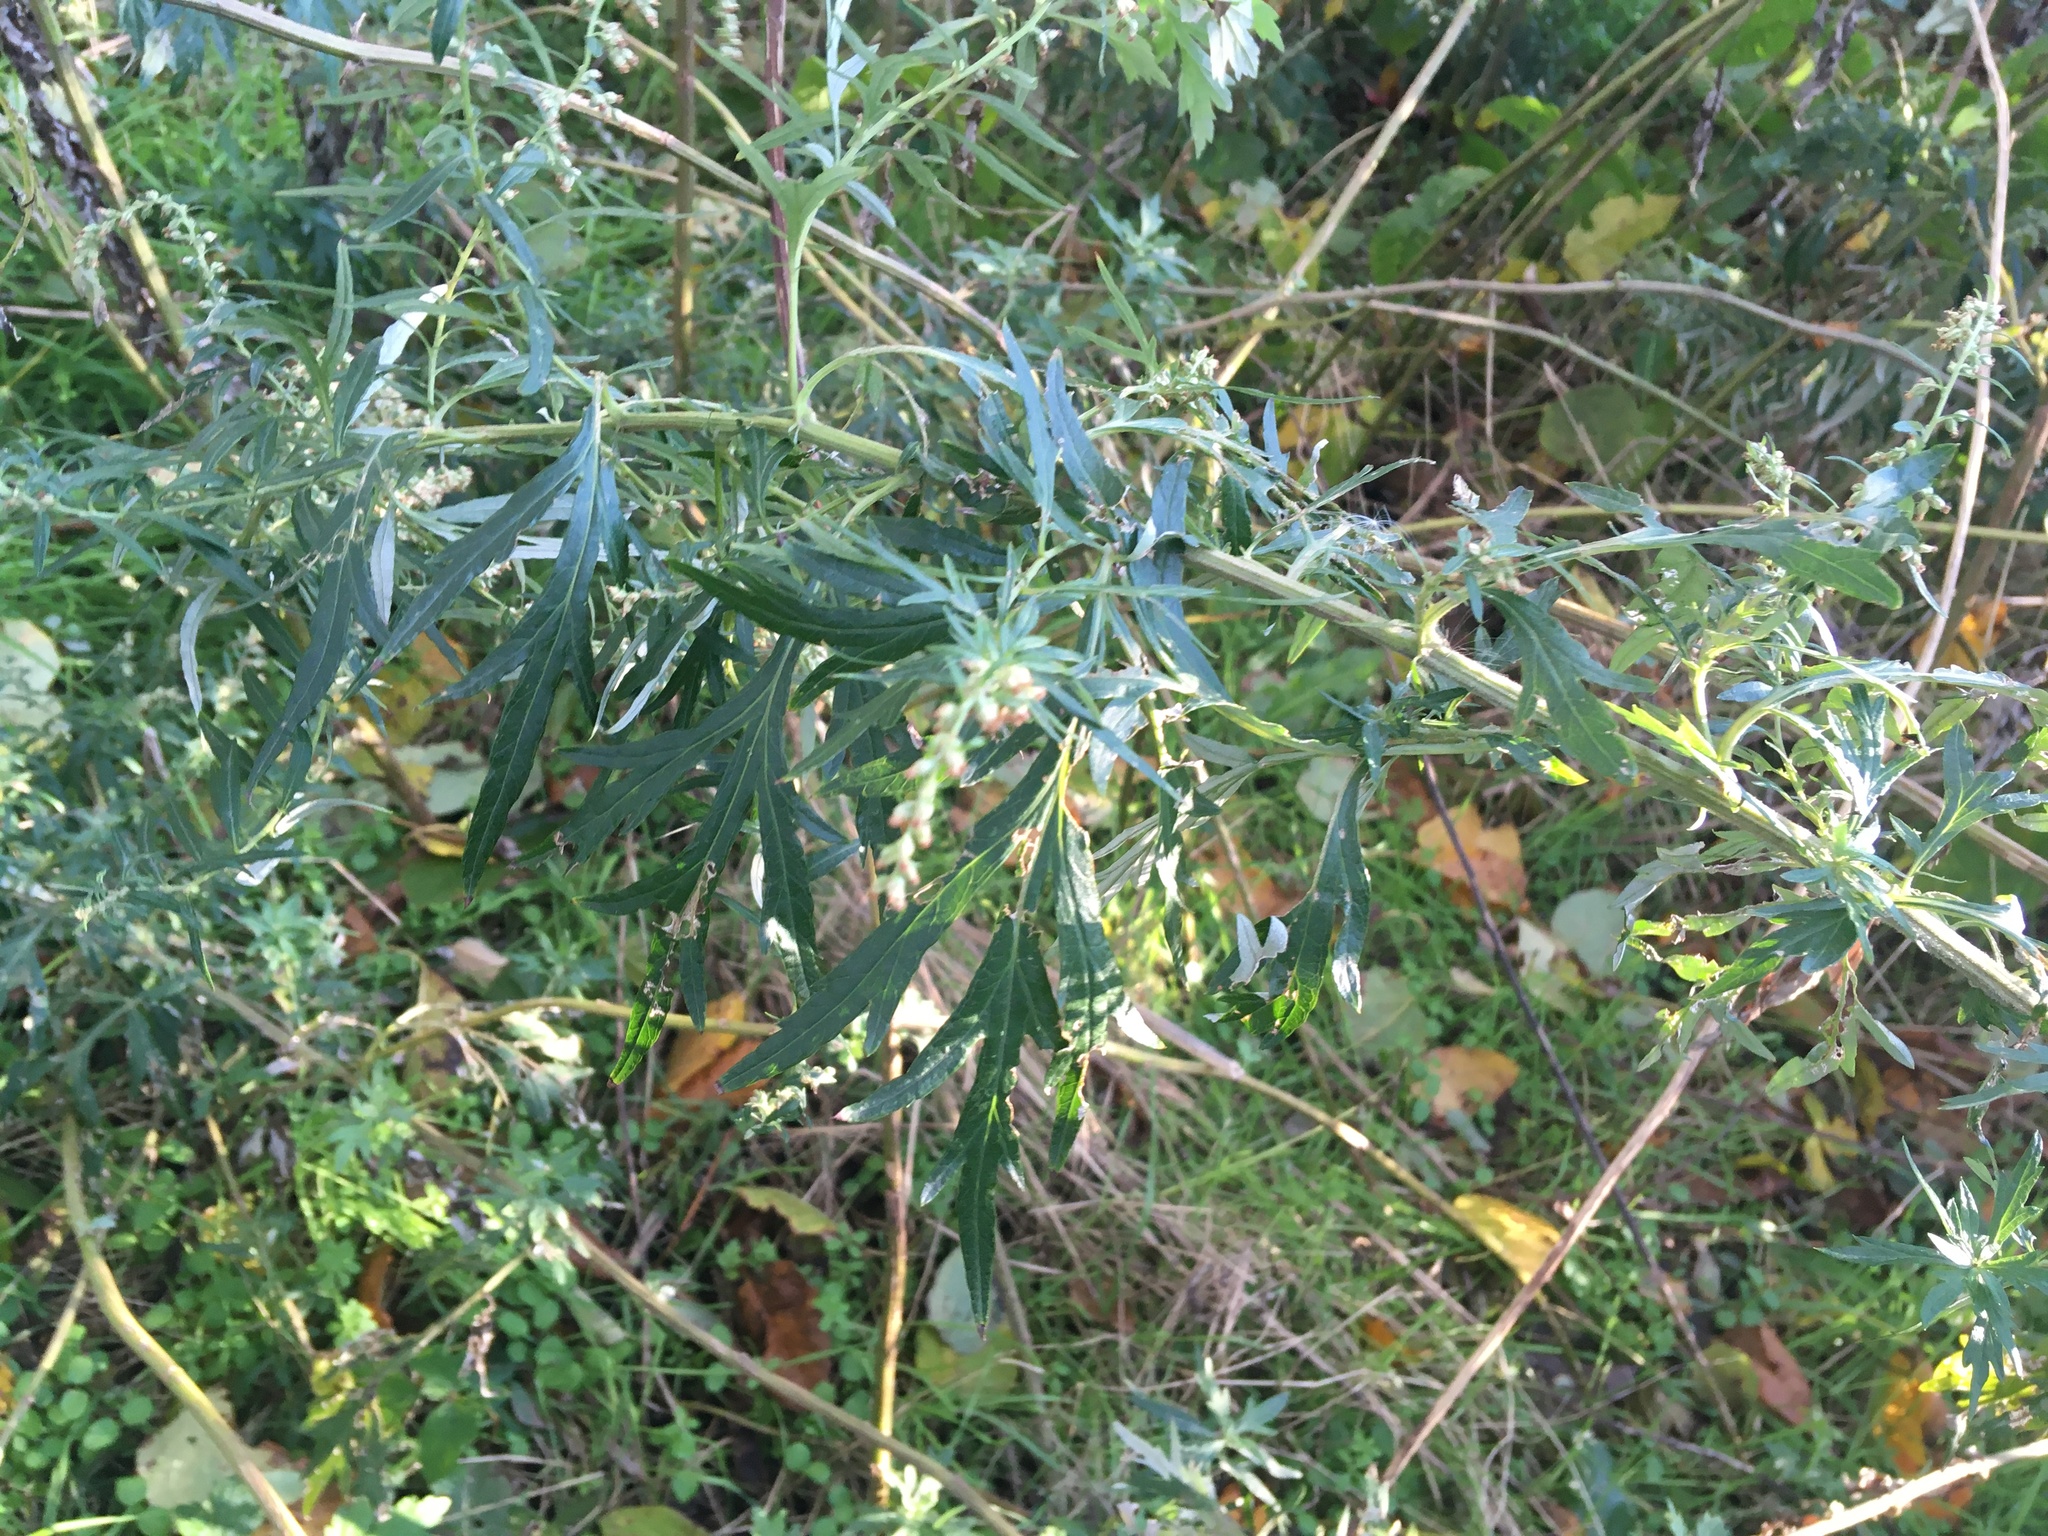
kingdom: Plantae
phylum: Tracheophyta
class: Magnoliopsida
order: Asterales
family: Asteraceae
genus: Artemisia
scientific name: Artemisia vulgaris
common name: Mugwort
